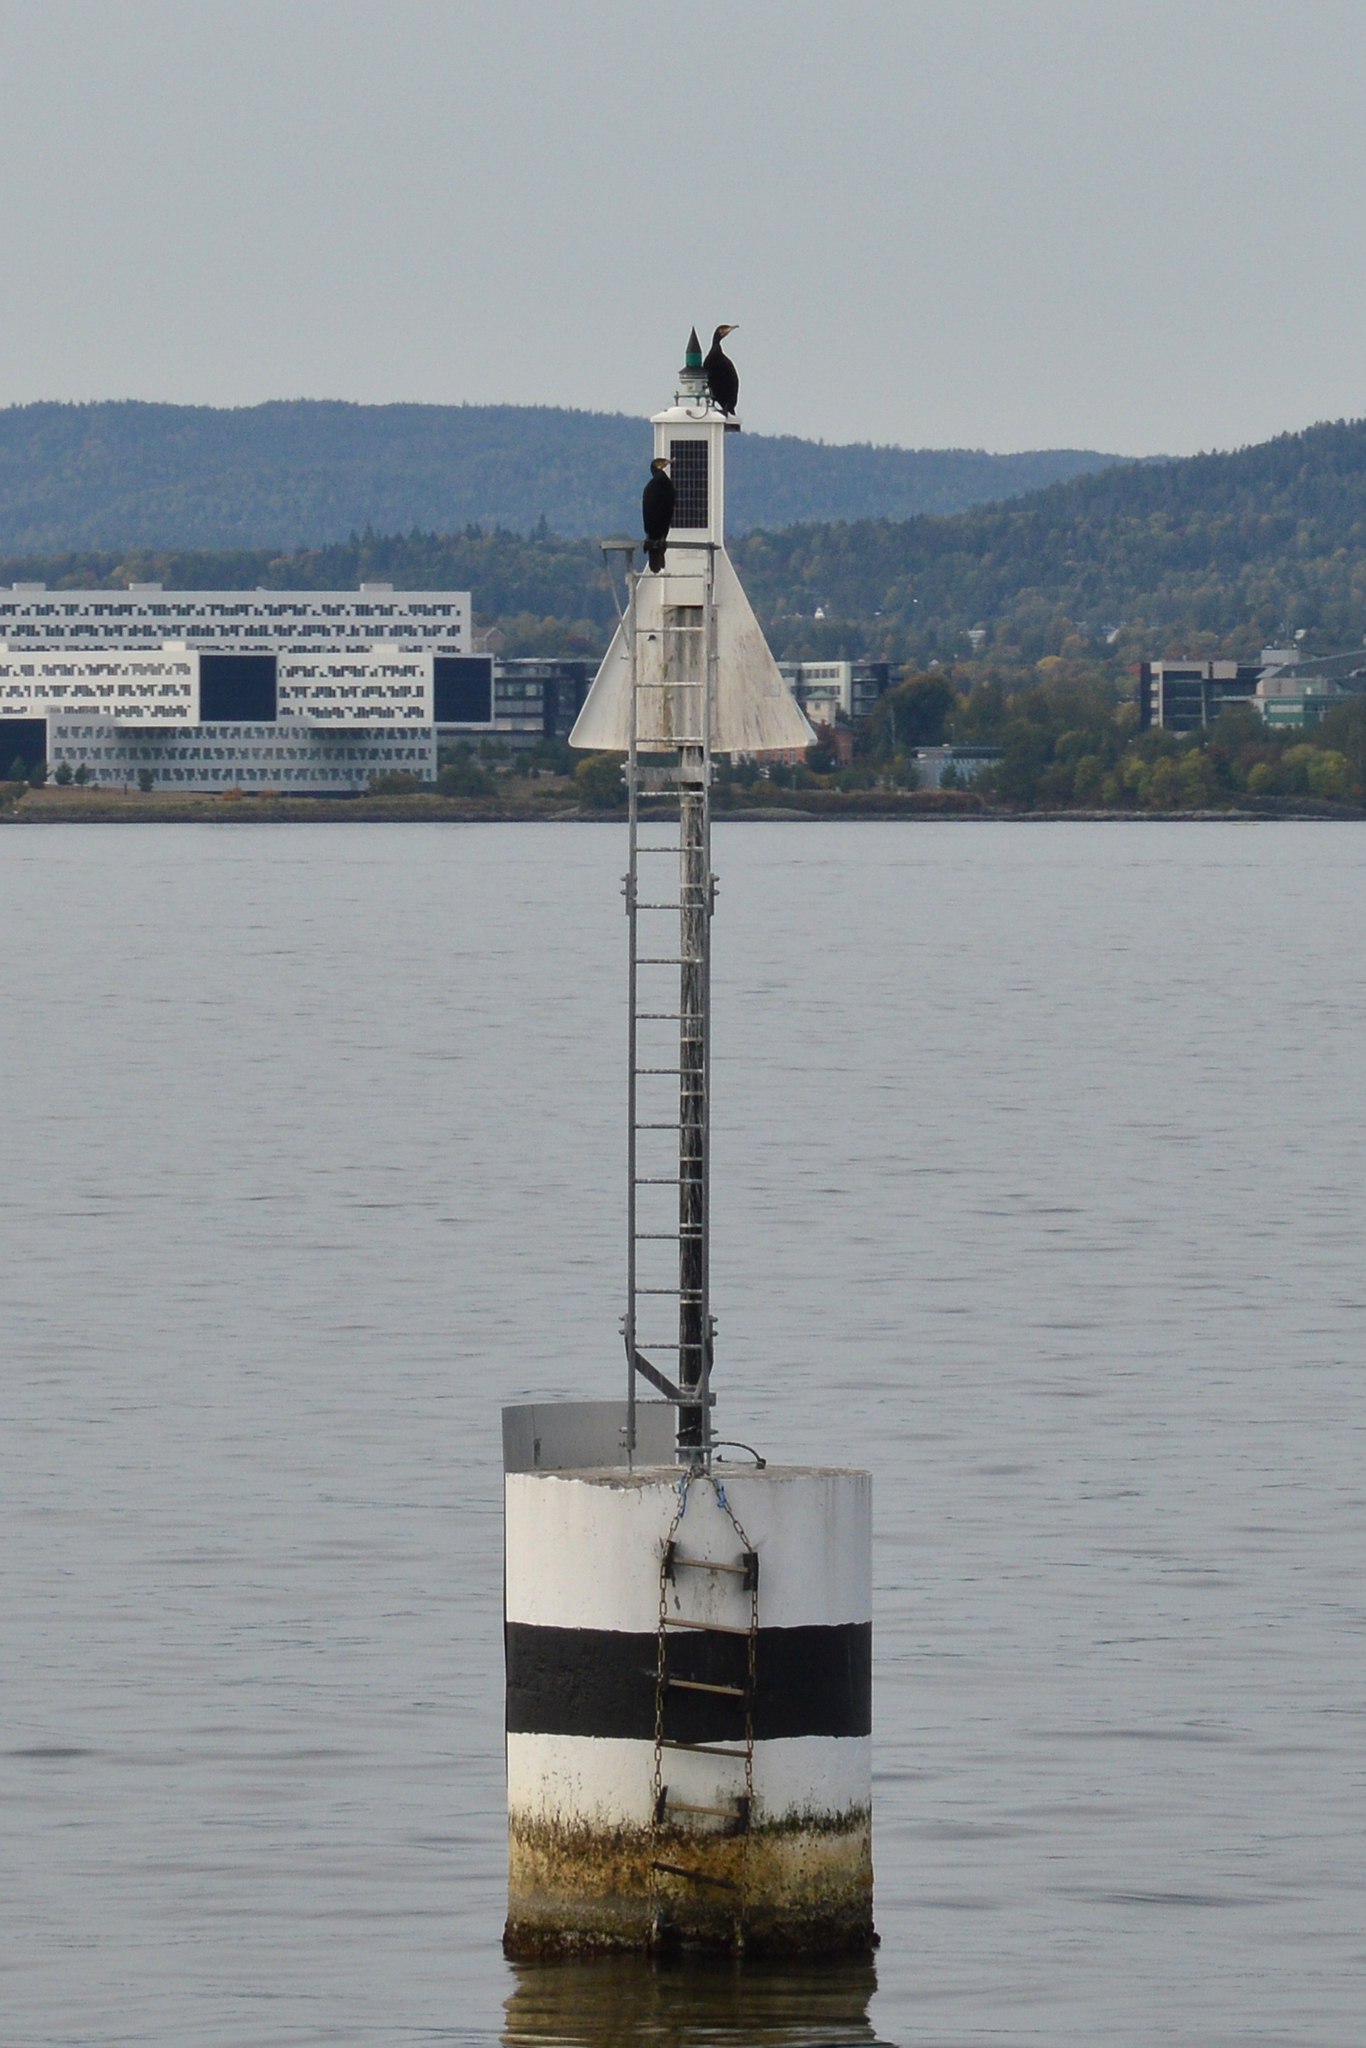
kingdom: Animalia
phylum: Chordata
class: Aves
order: Suliformes
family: Phalacrocoracidae
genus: Phalacrocorax
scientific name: Phalacrocorax carbo
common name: Great cormorant
